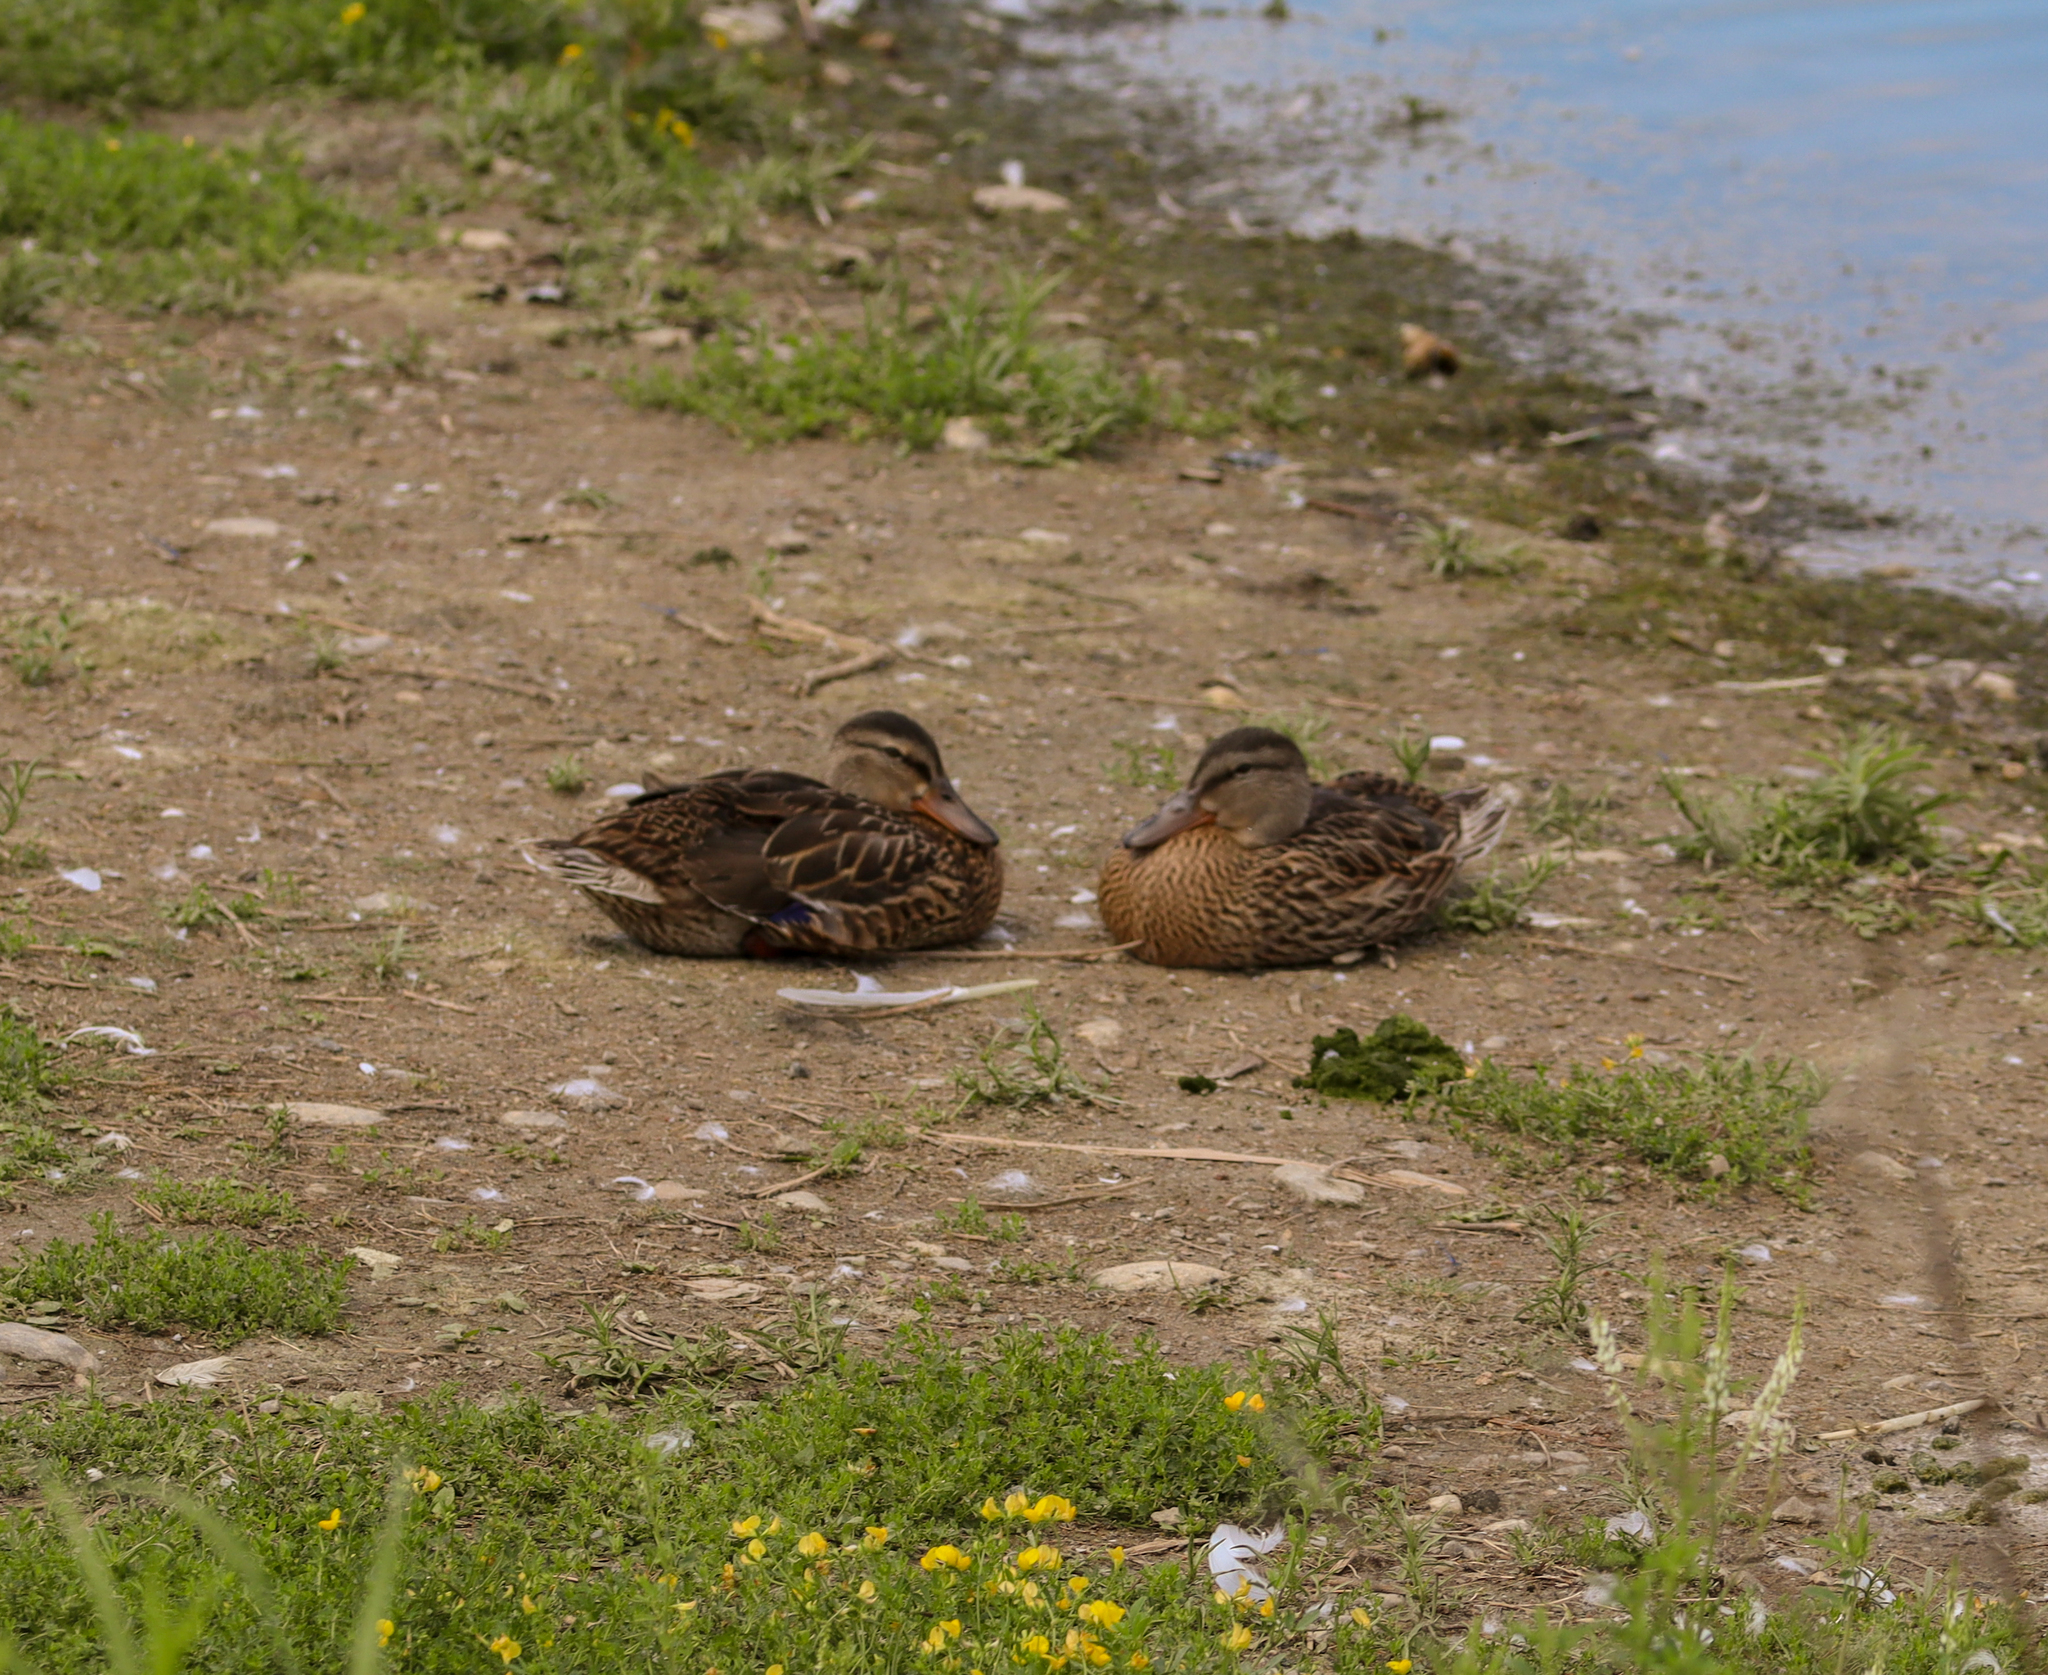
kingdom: Animalia
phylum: Chordata
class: Aves
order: Anseriformes
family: Anatidae
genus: Anas
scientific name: Anas platyrhynchos
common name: Mallard
